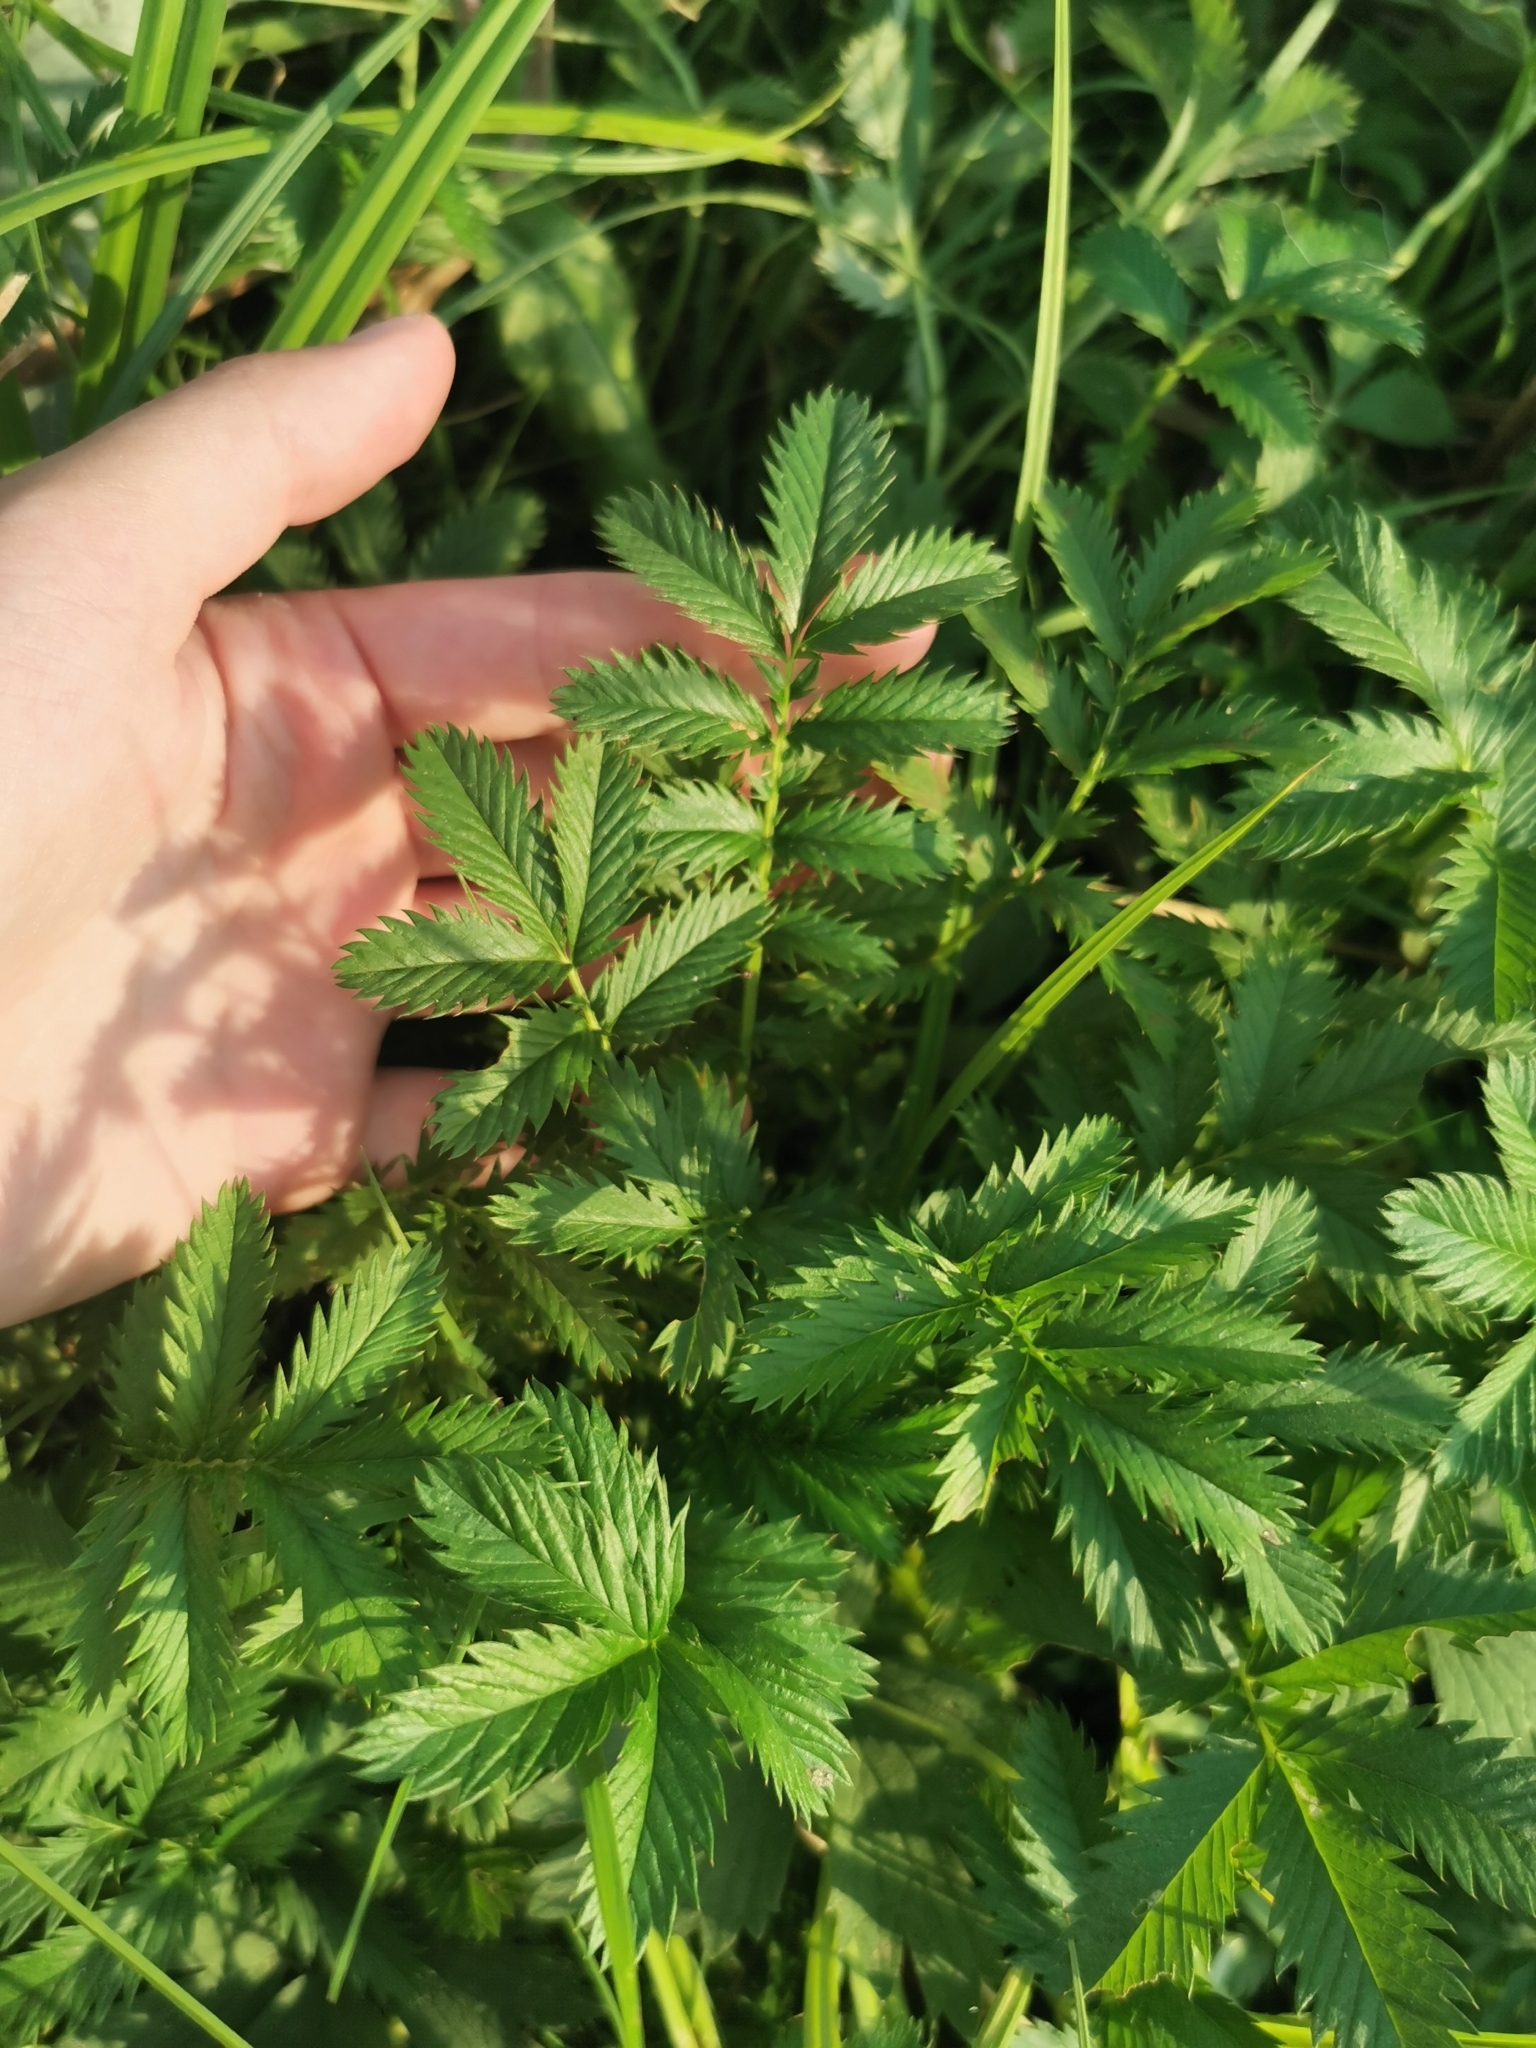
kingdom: Plantae
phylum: Tracheophyta
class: Magnoliopsida
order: Rosales
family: Rosaceae
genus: Argentina
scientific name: Argentina anserina
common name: Common silverweed
